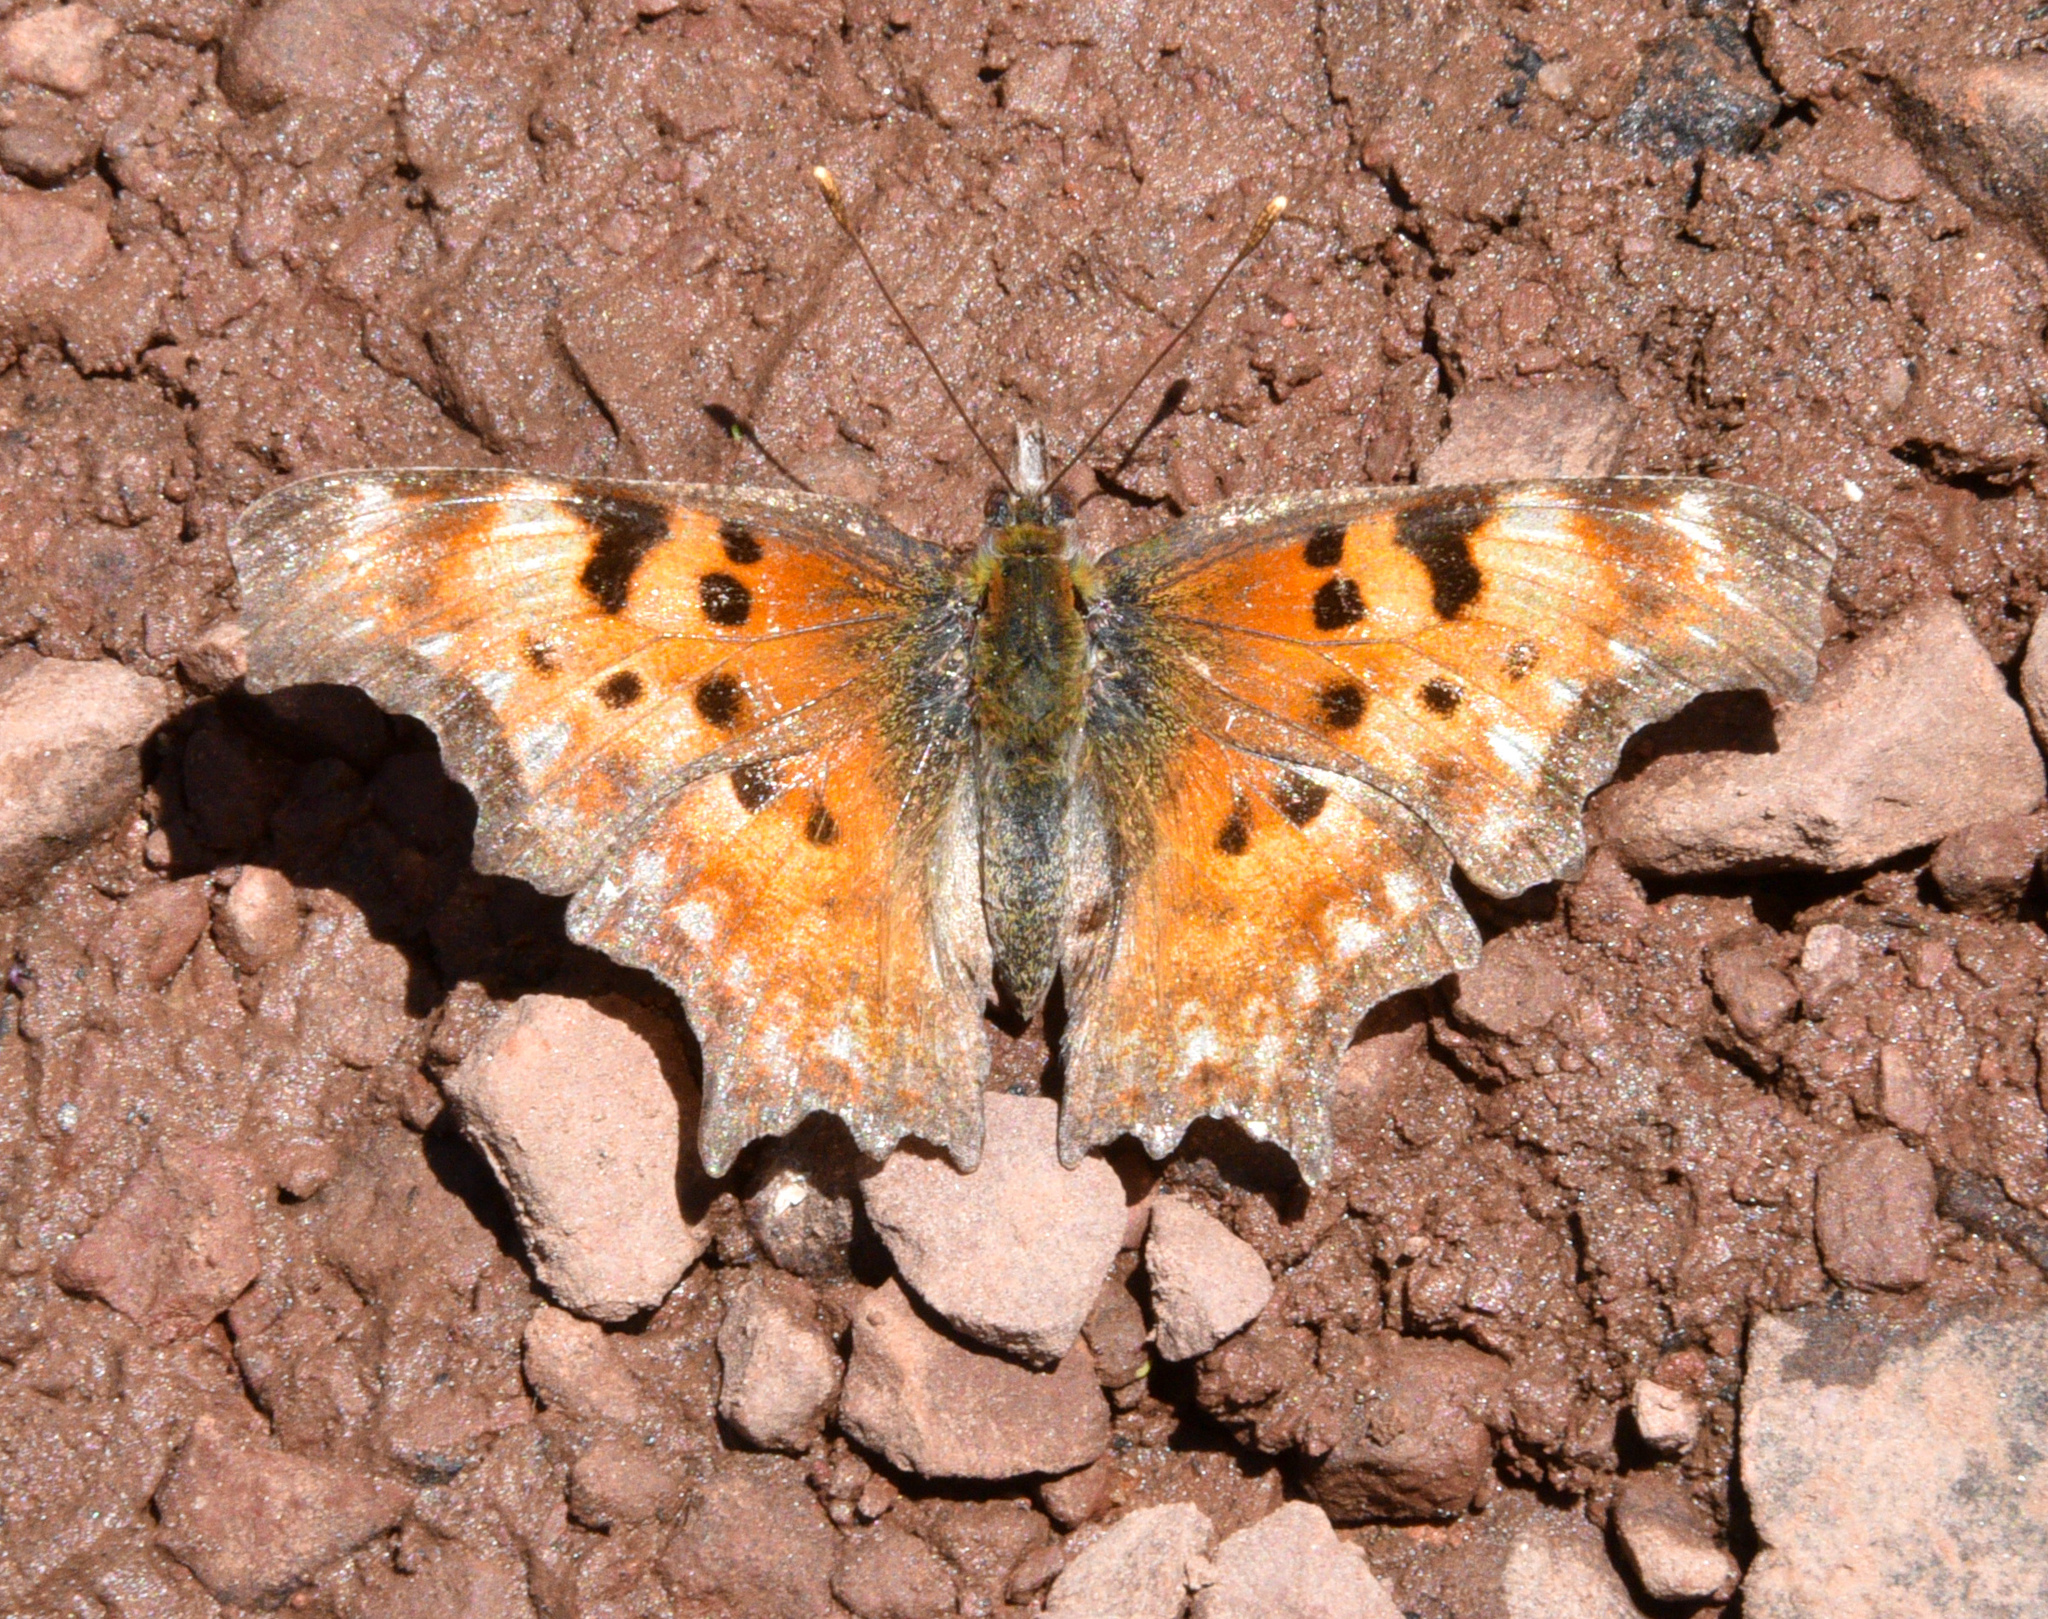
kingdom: Animalia
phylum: Arthropoda
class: Insecta
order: Lepidoptera
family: Nymphalidae
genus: Polygonia
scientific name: Polygonia gracilis
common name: Hoary comma
